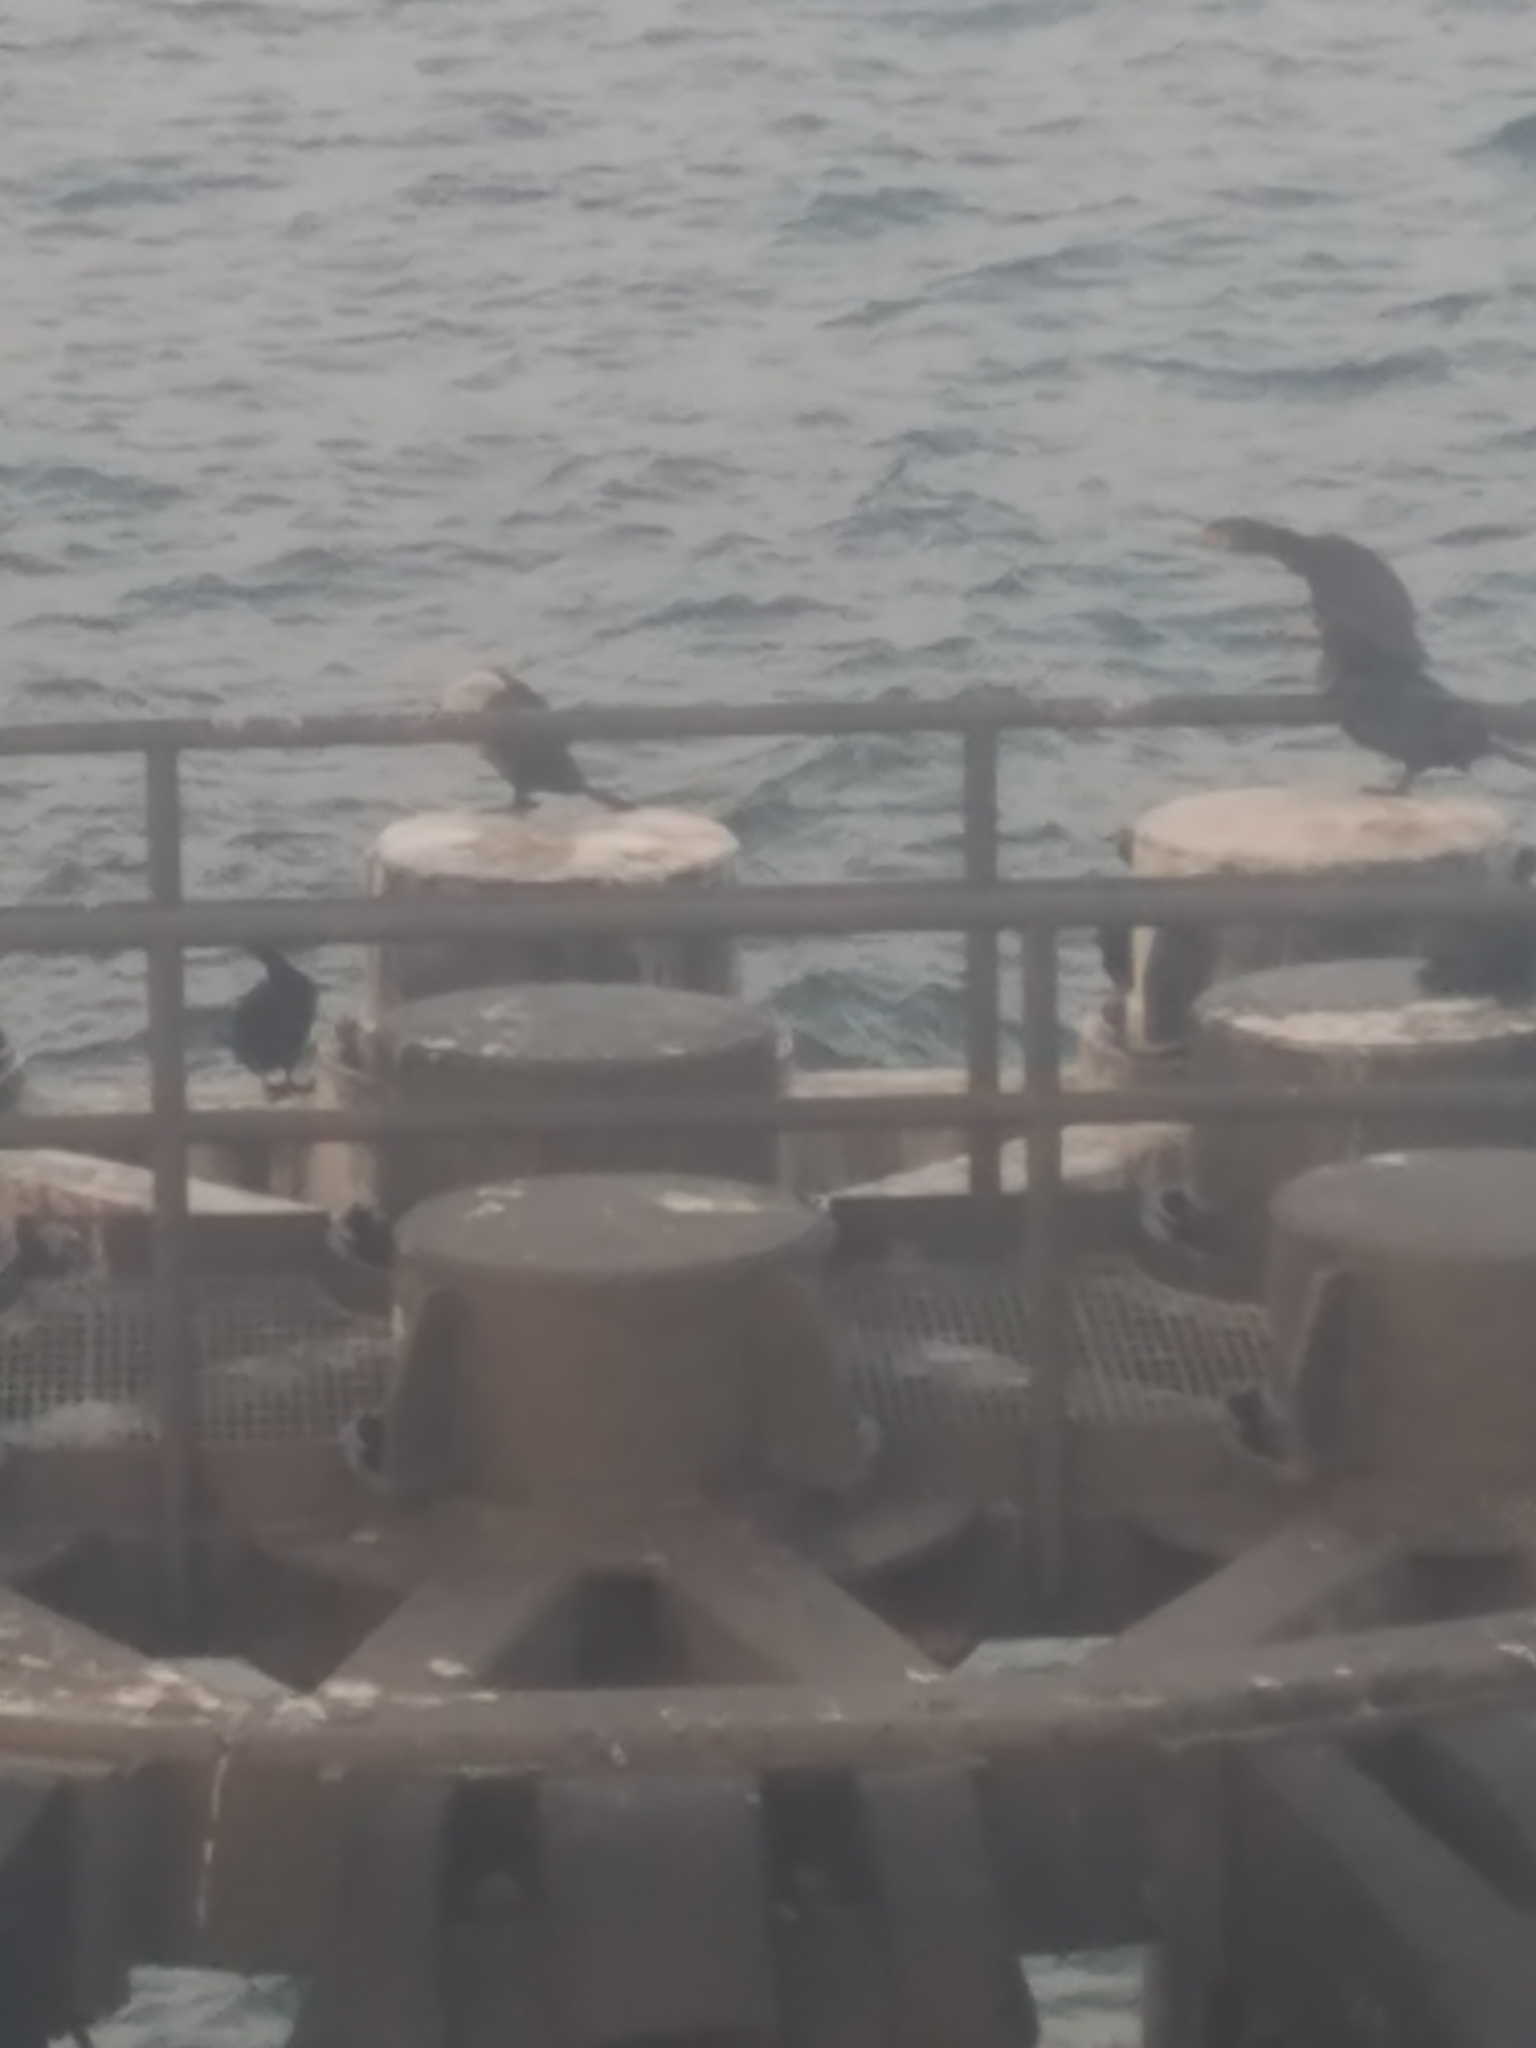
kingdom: Animalia
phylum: Chordata
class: Aves
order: Suliformes
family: Phalacrocoracidae
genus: Phalacrocorax
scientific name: Phalacrocorax auritus
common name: Double-crested cormorant
